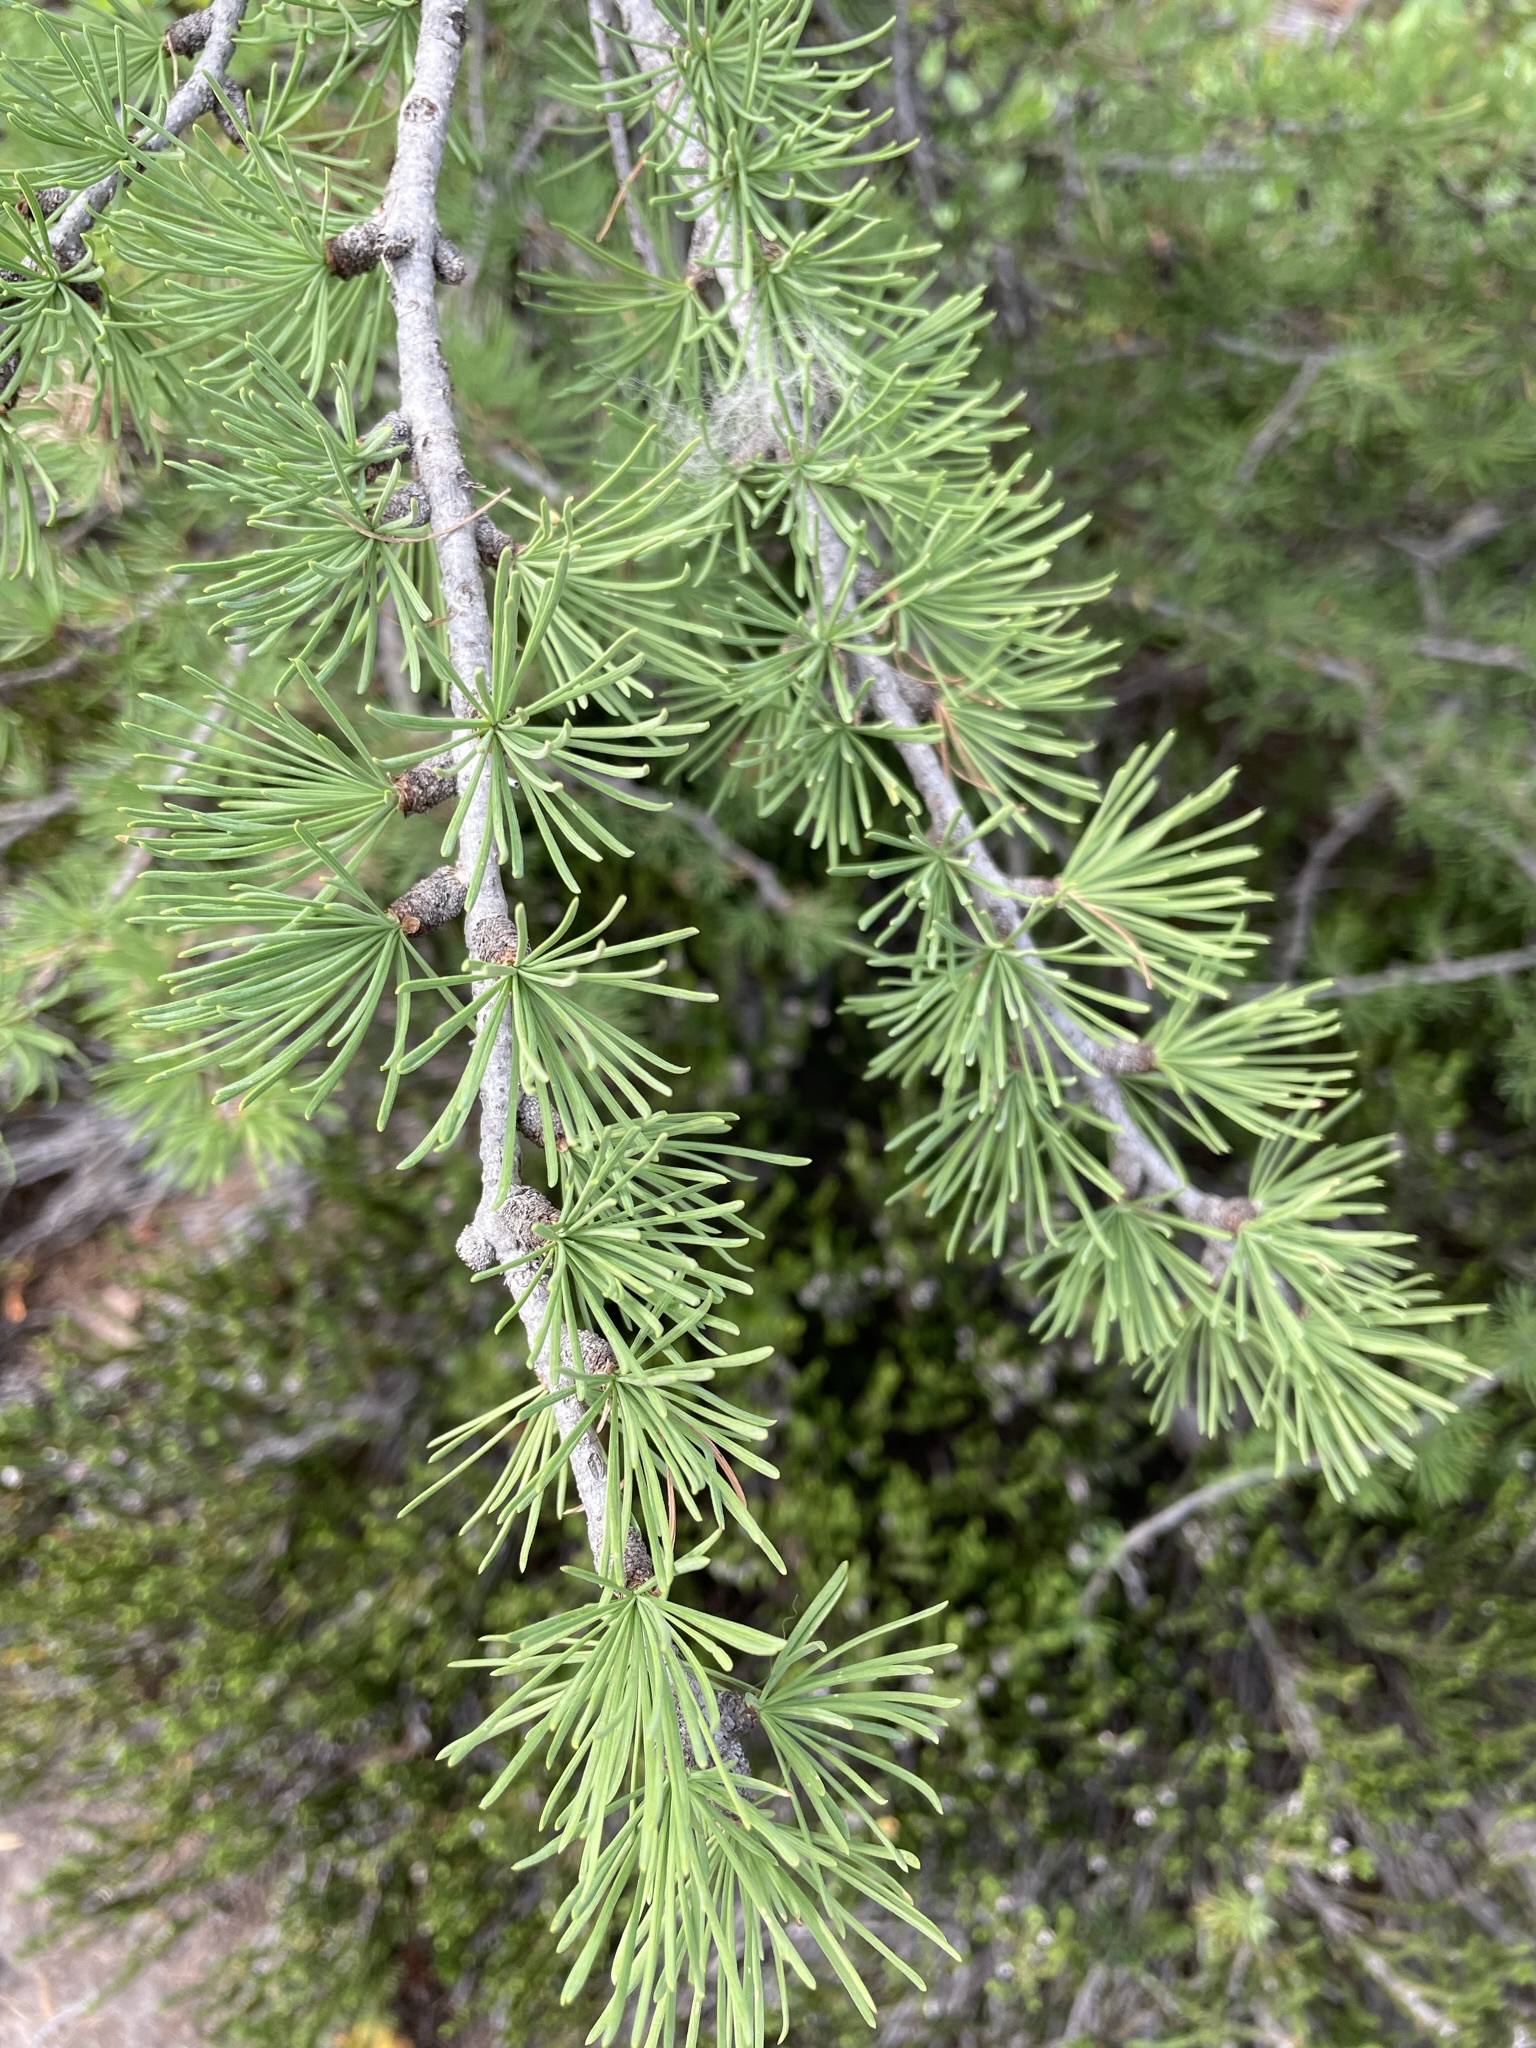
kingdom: Plantae
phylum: Tracheophyta
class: Pinopsida
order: Pinales
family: Pinaceae
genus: Larix
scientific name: Larix lyallii
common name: Alpine larch
